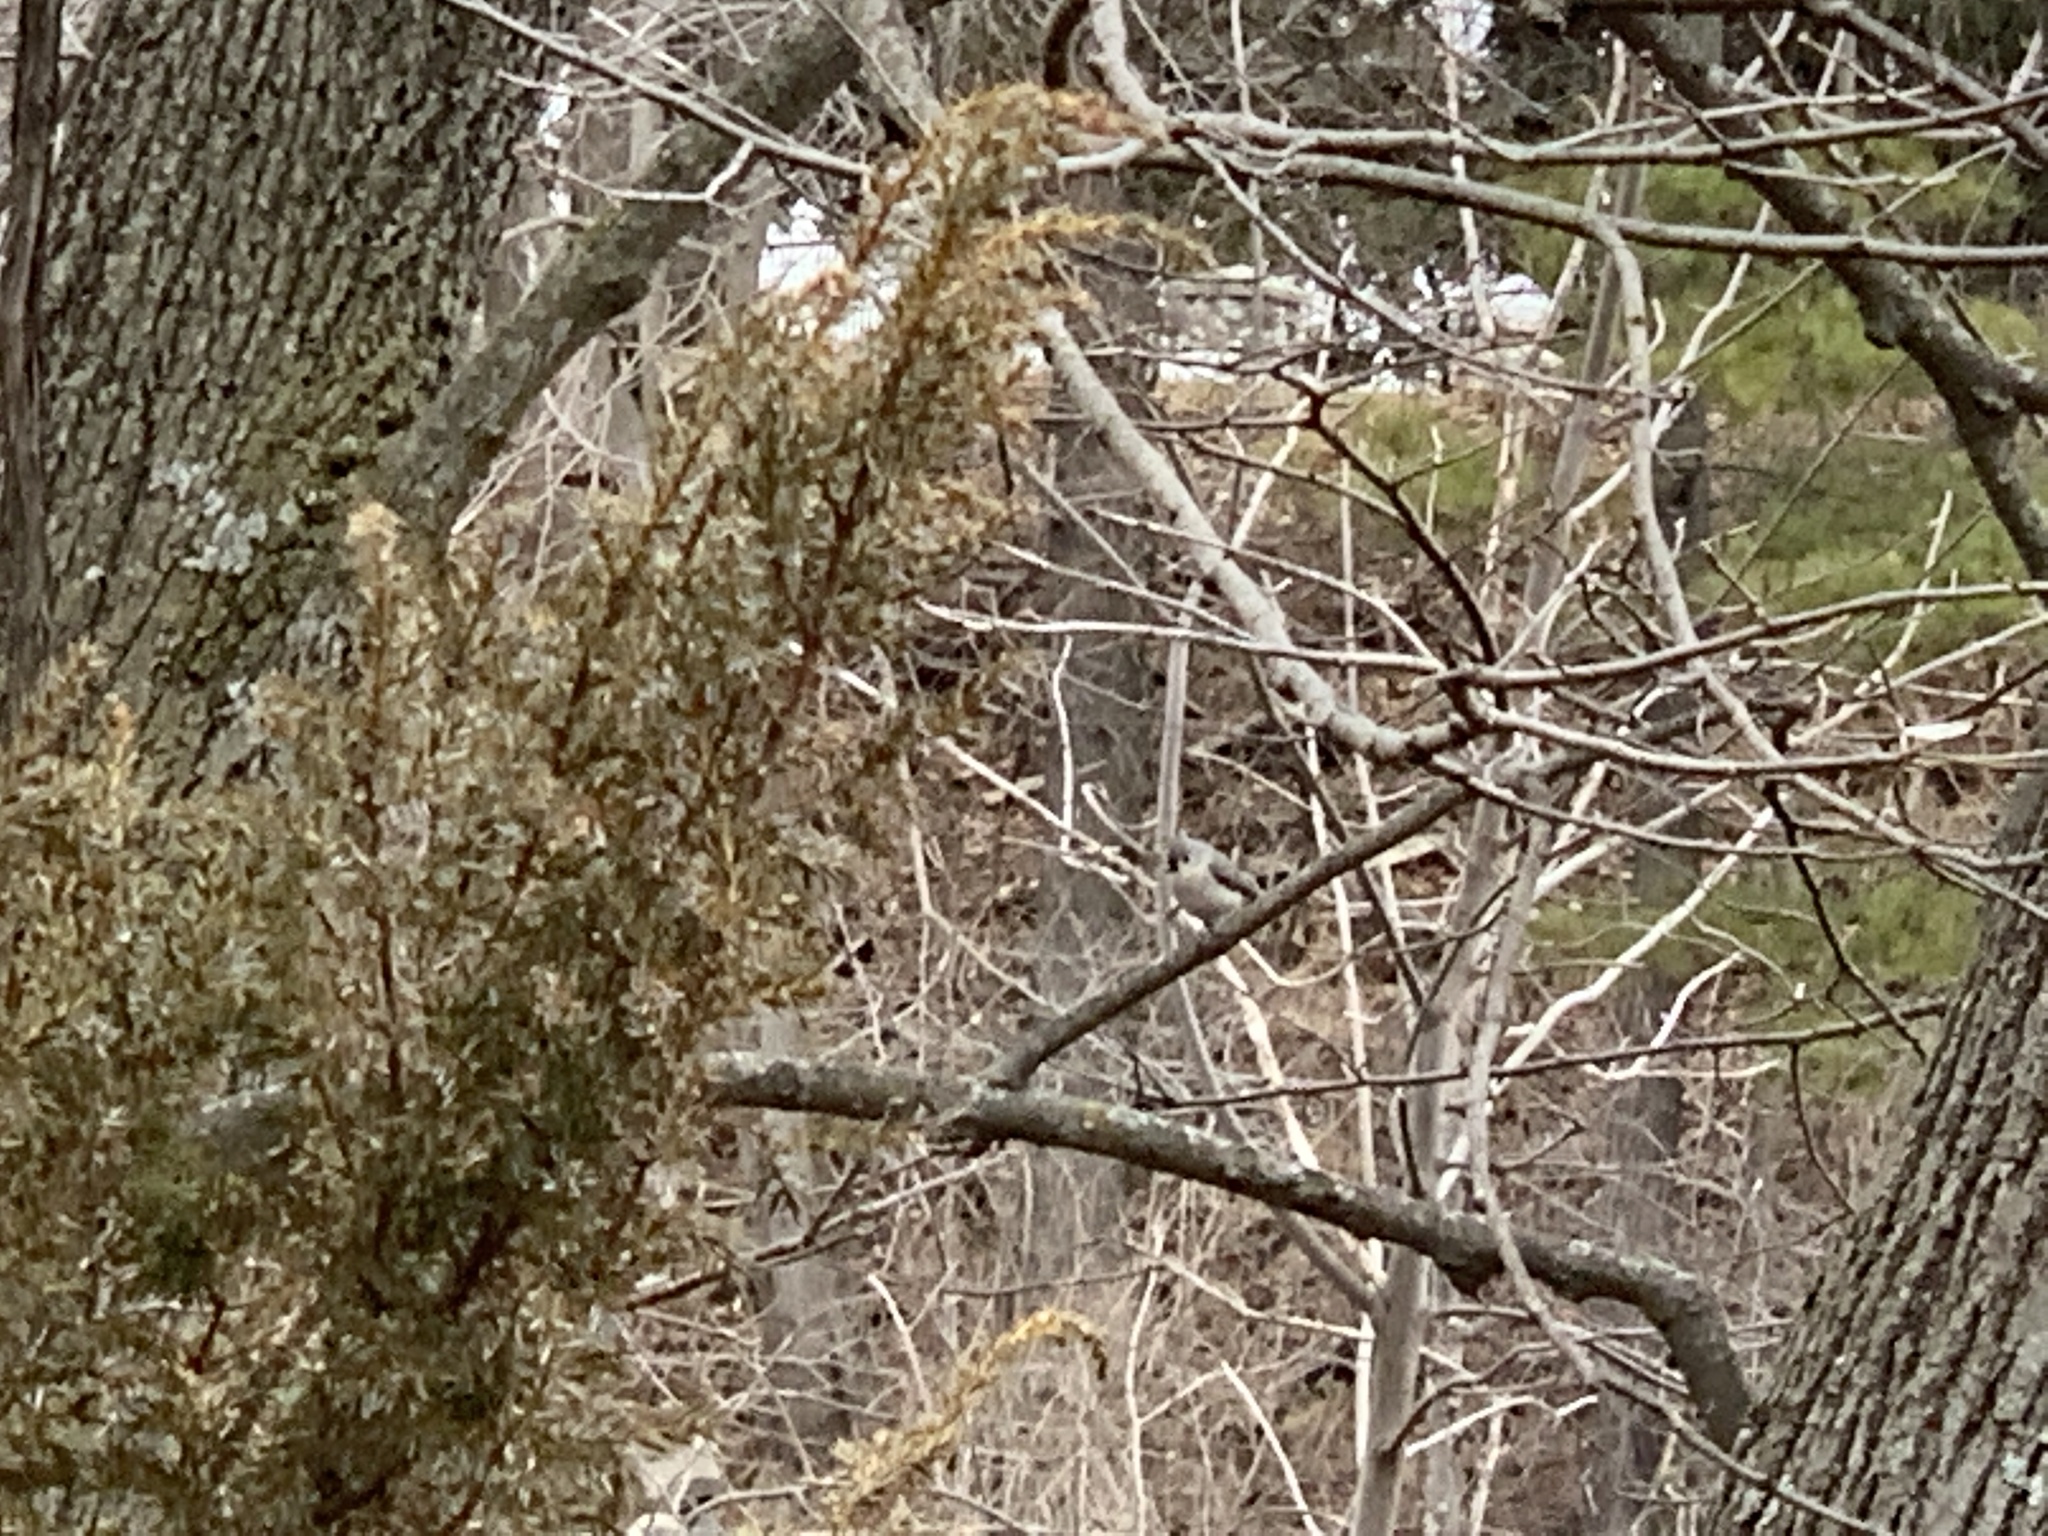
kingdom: Animalia
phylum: Chordata
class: Aves
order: Passeriformes
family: Paridae
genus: Baeolophus
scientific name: Baeolophus bicolor
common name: Tufted titmouse
